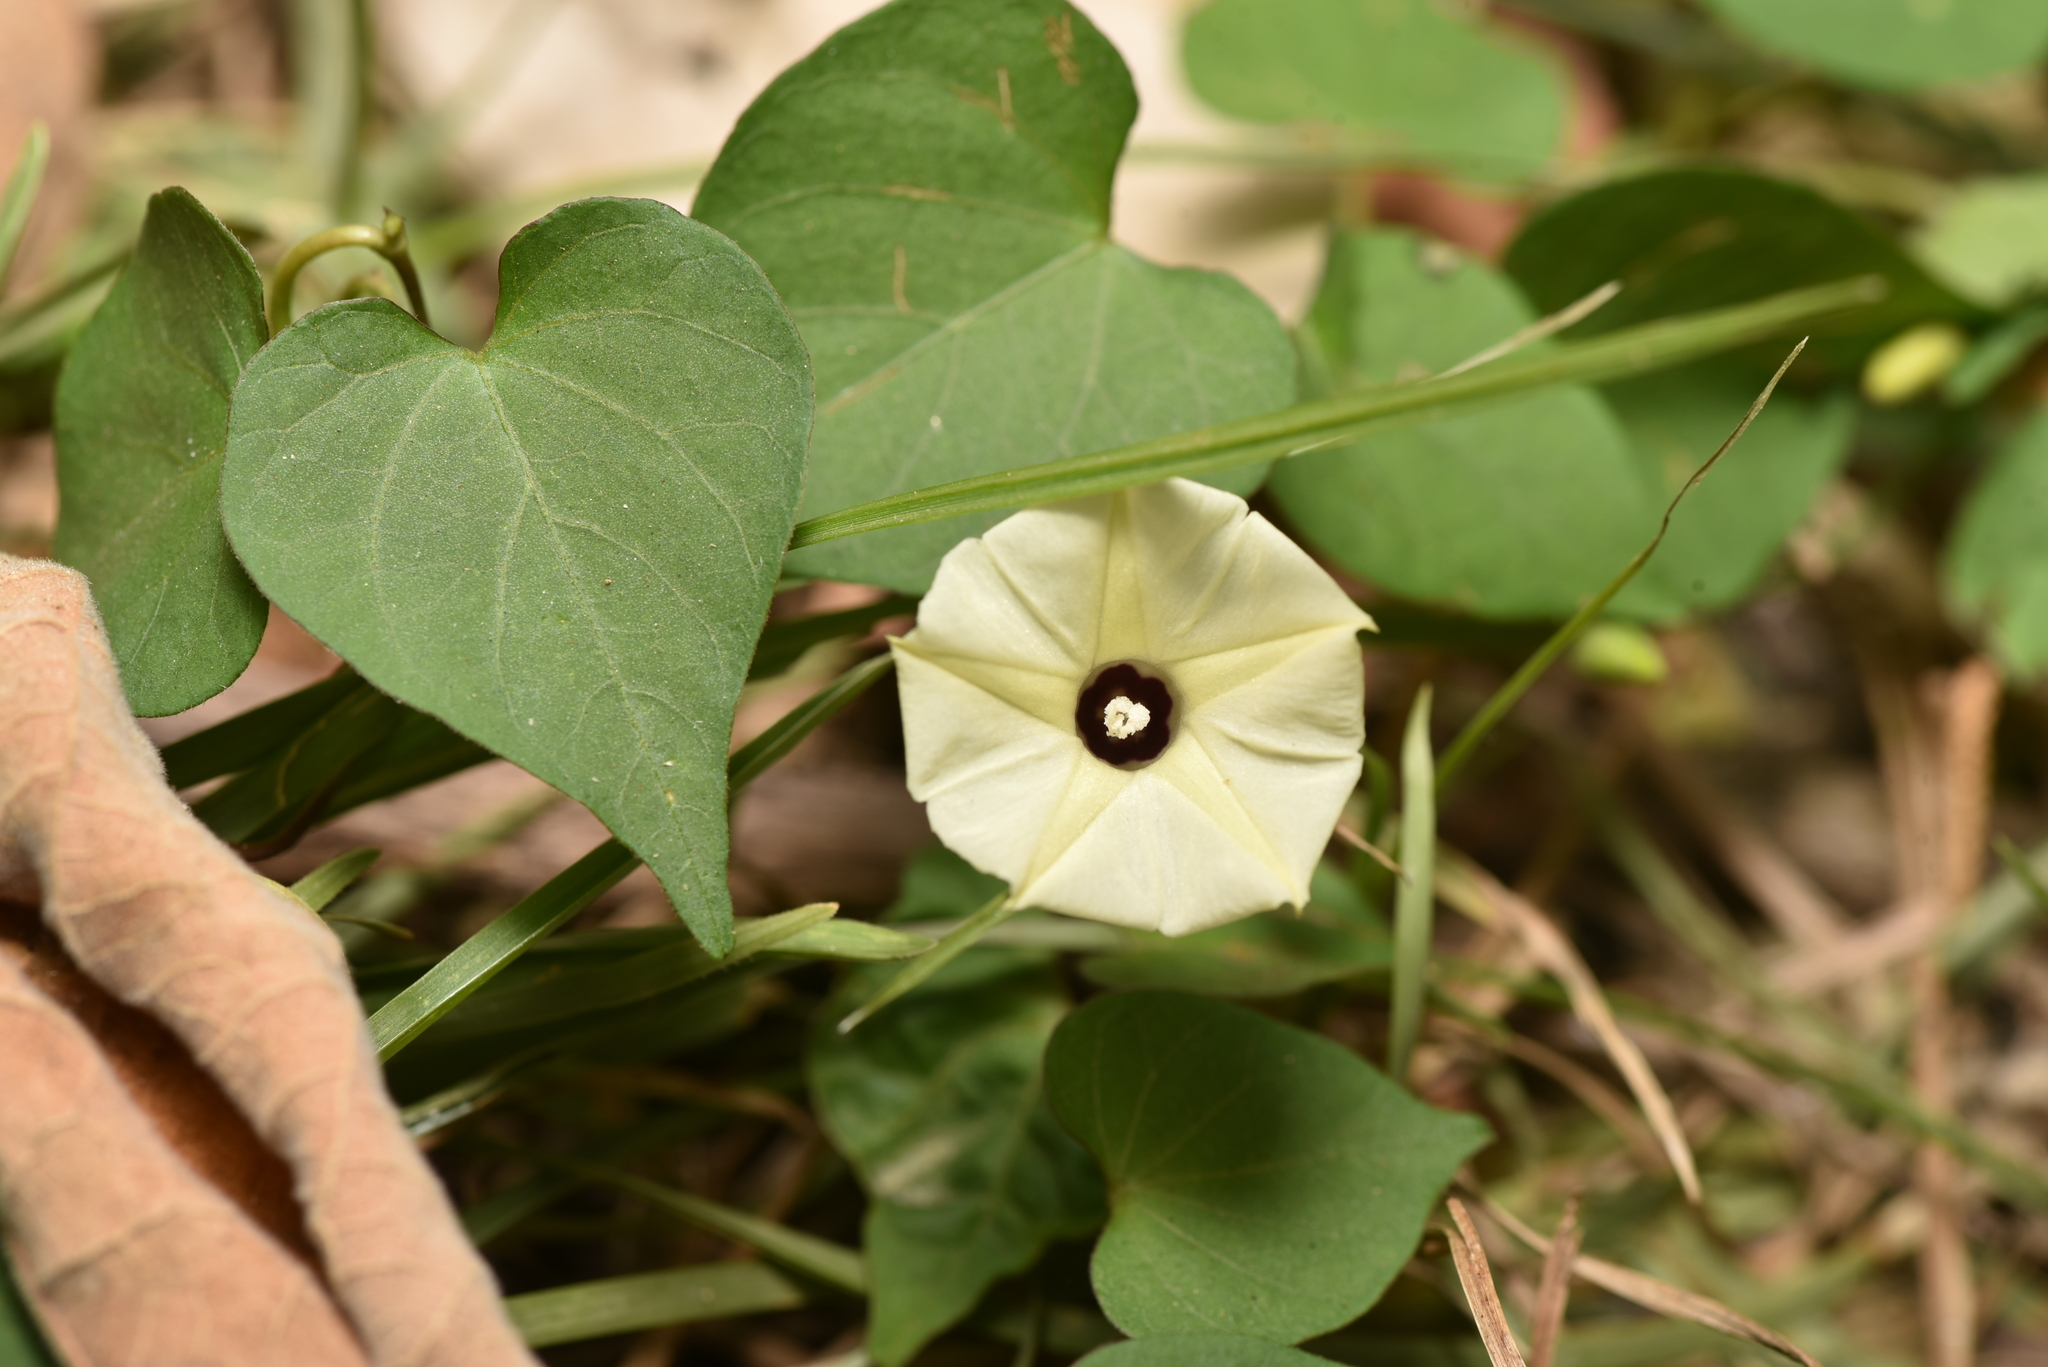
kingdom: Plantae
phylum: Tracheophyta
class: Magnoliopsida
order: Solanales
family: Convolvulaceae
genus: Ipomoea
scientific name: Ipomoea obscura
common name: Obscure morning-glory
